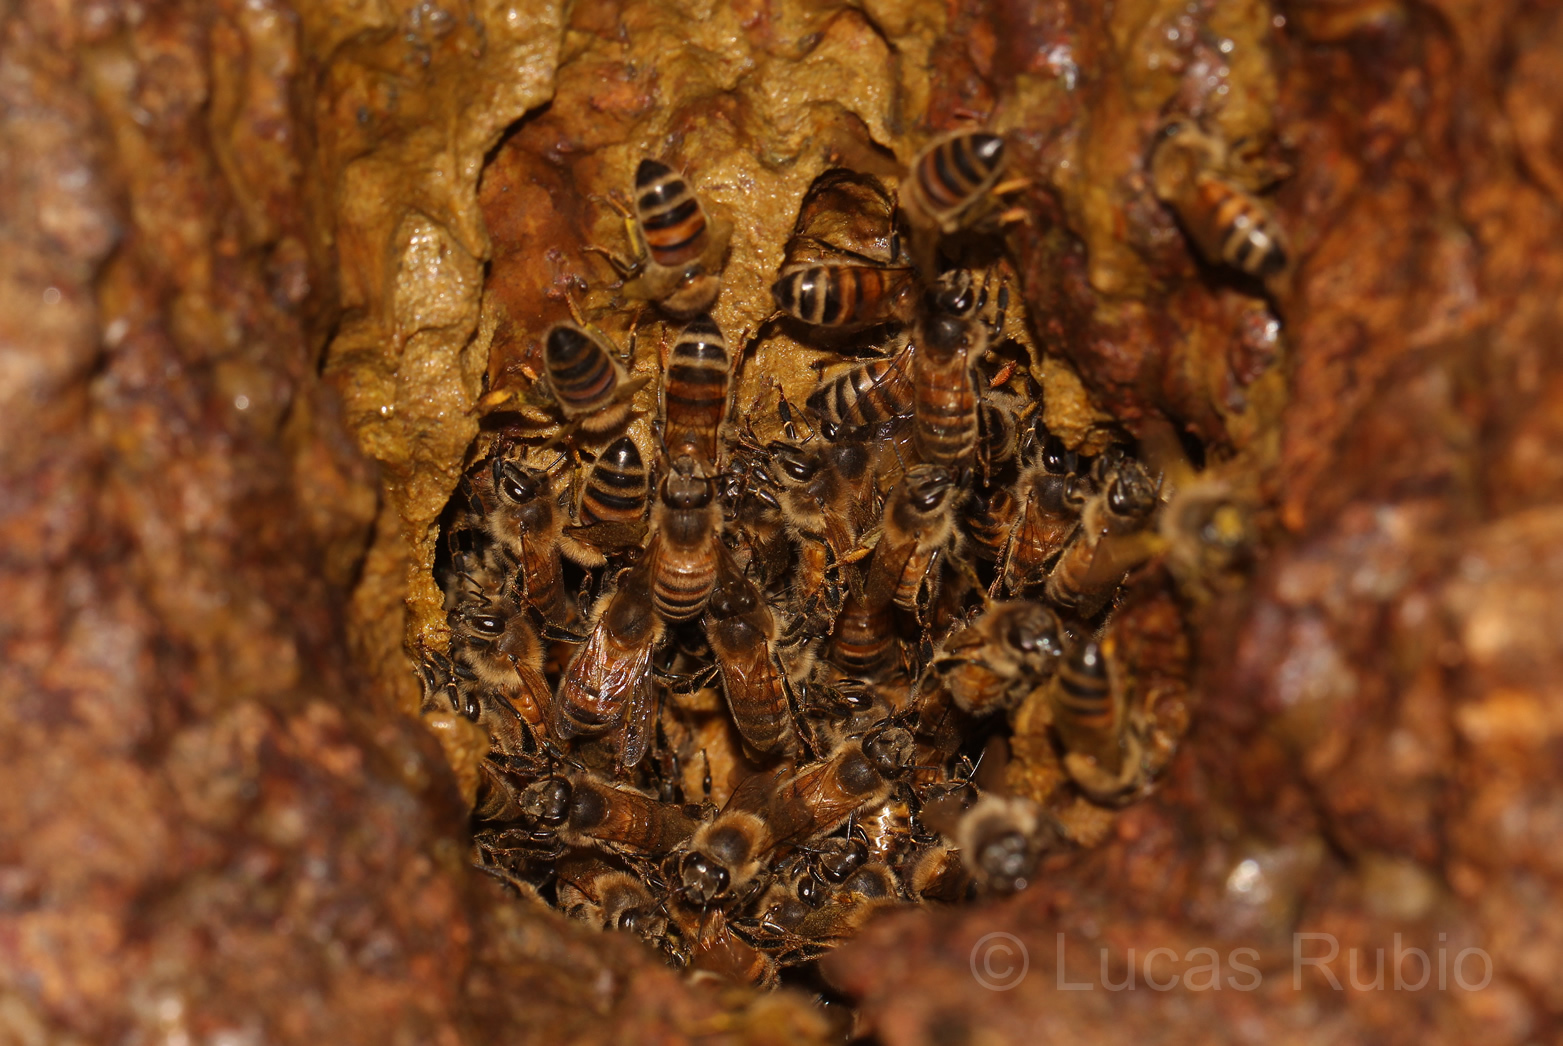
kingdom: Animalia
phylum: Arthropoda
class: Insecta
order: Hymenoptera
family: Apidae
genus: Apis
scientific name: Apis mellifera
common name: Honey bee
